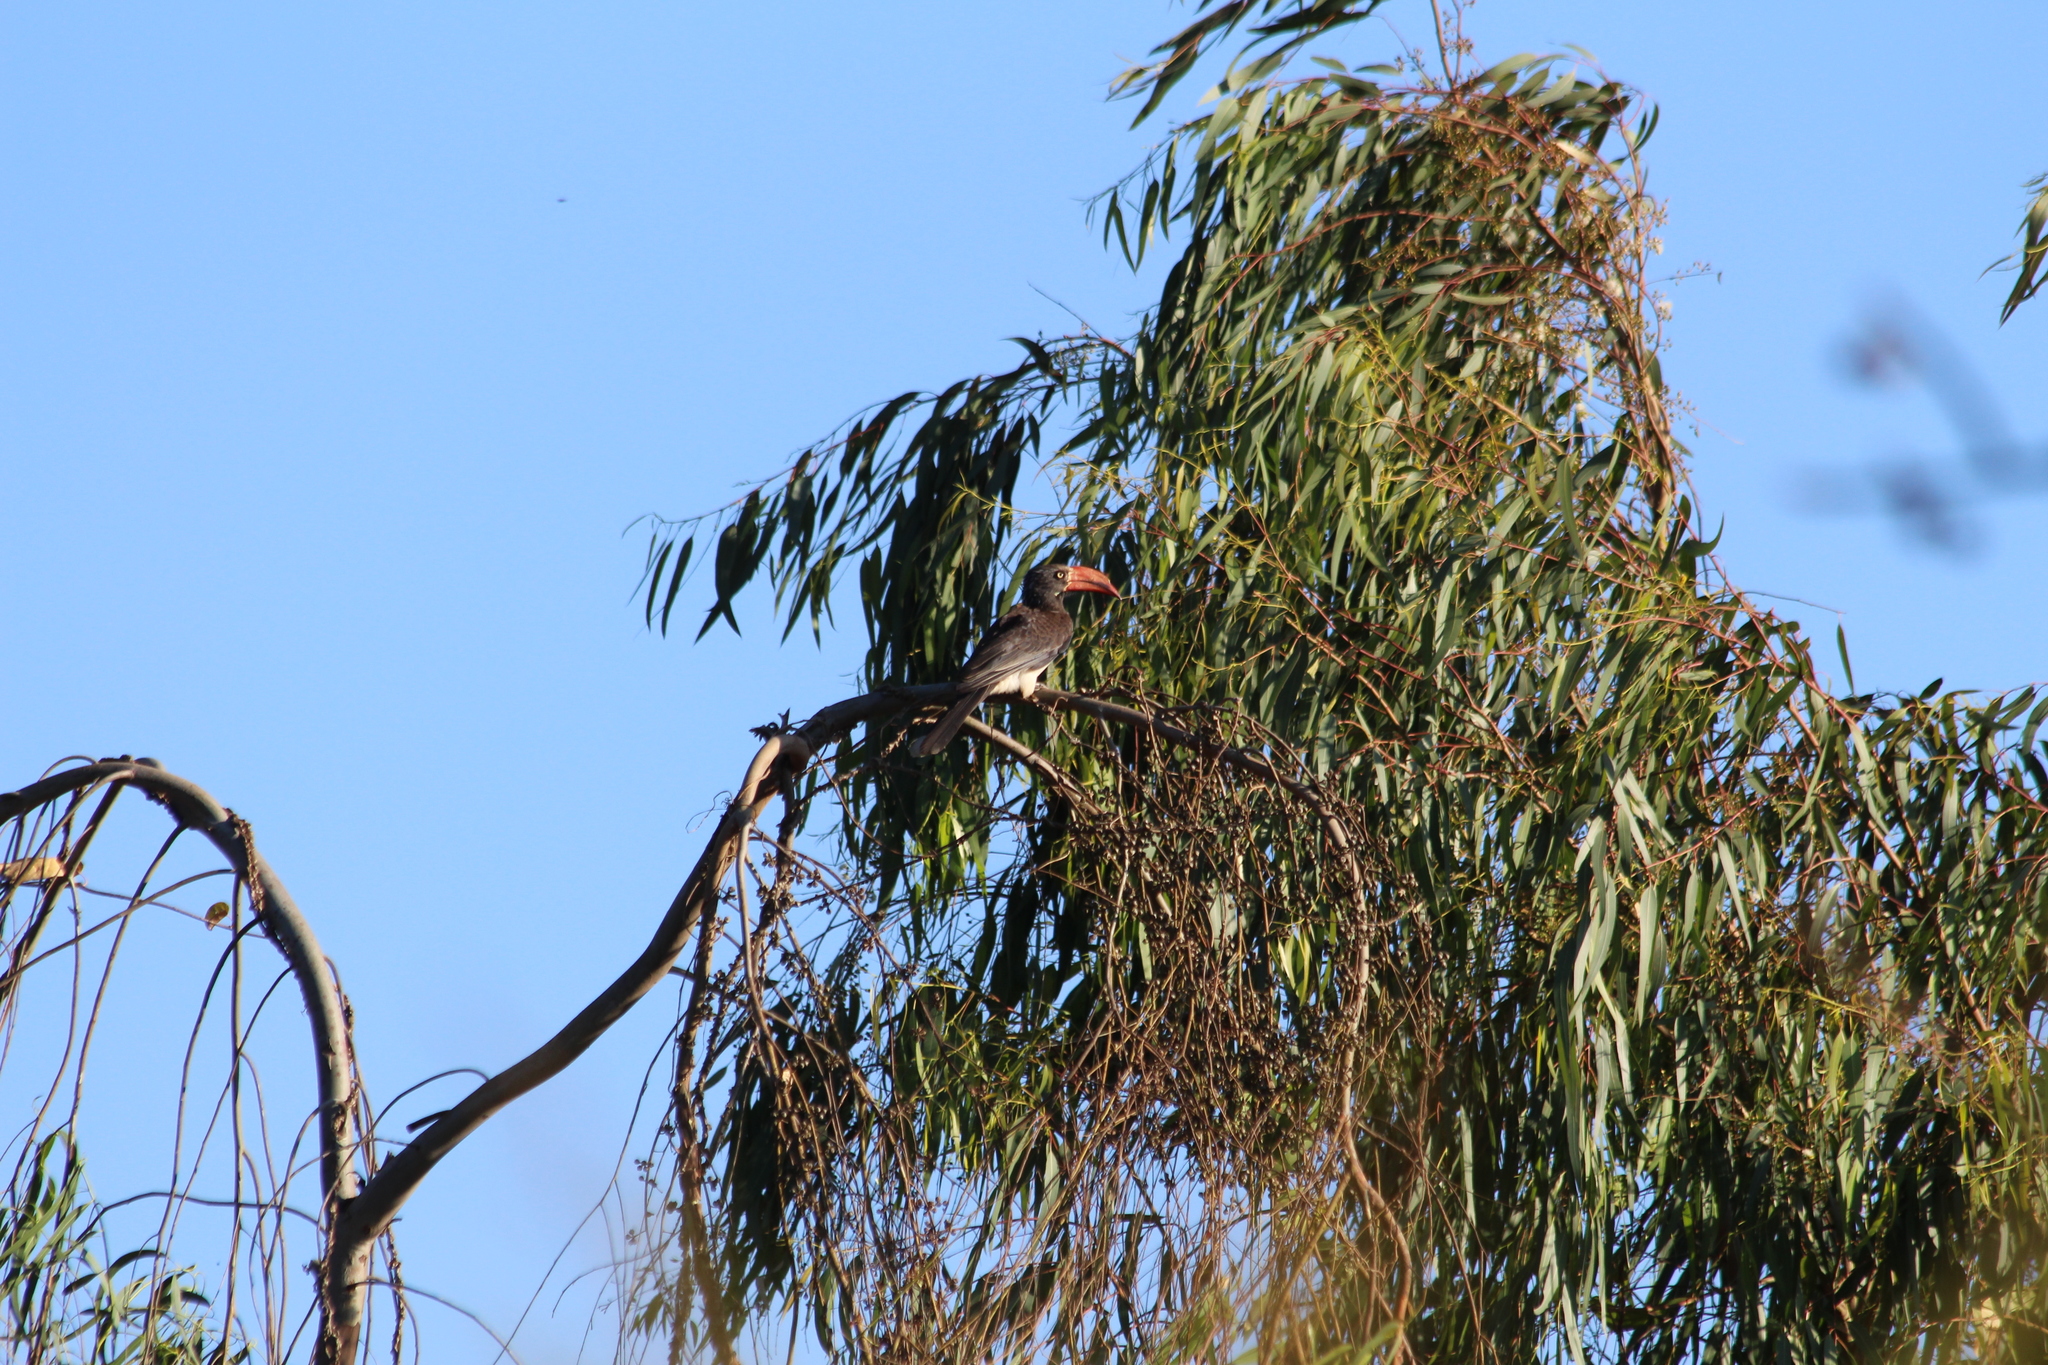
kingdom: Animalia
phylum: Chordata
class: Aves
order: Bucerotiformes
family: Bucerotidae
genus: Lophoceros
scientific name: Lophoceros alboterminatus
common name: Crowned hornbill
